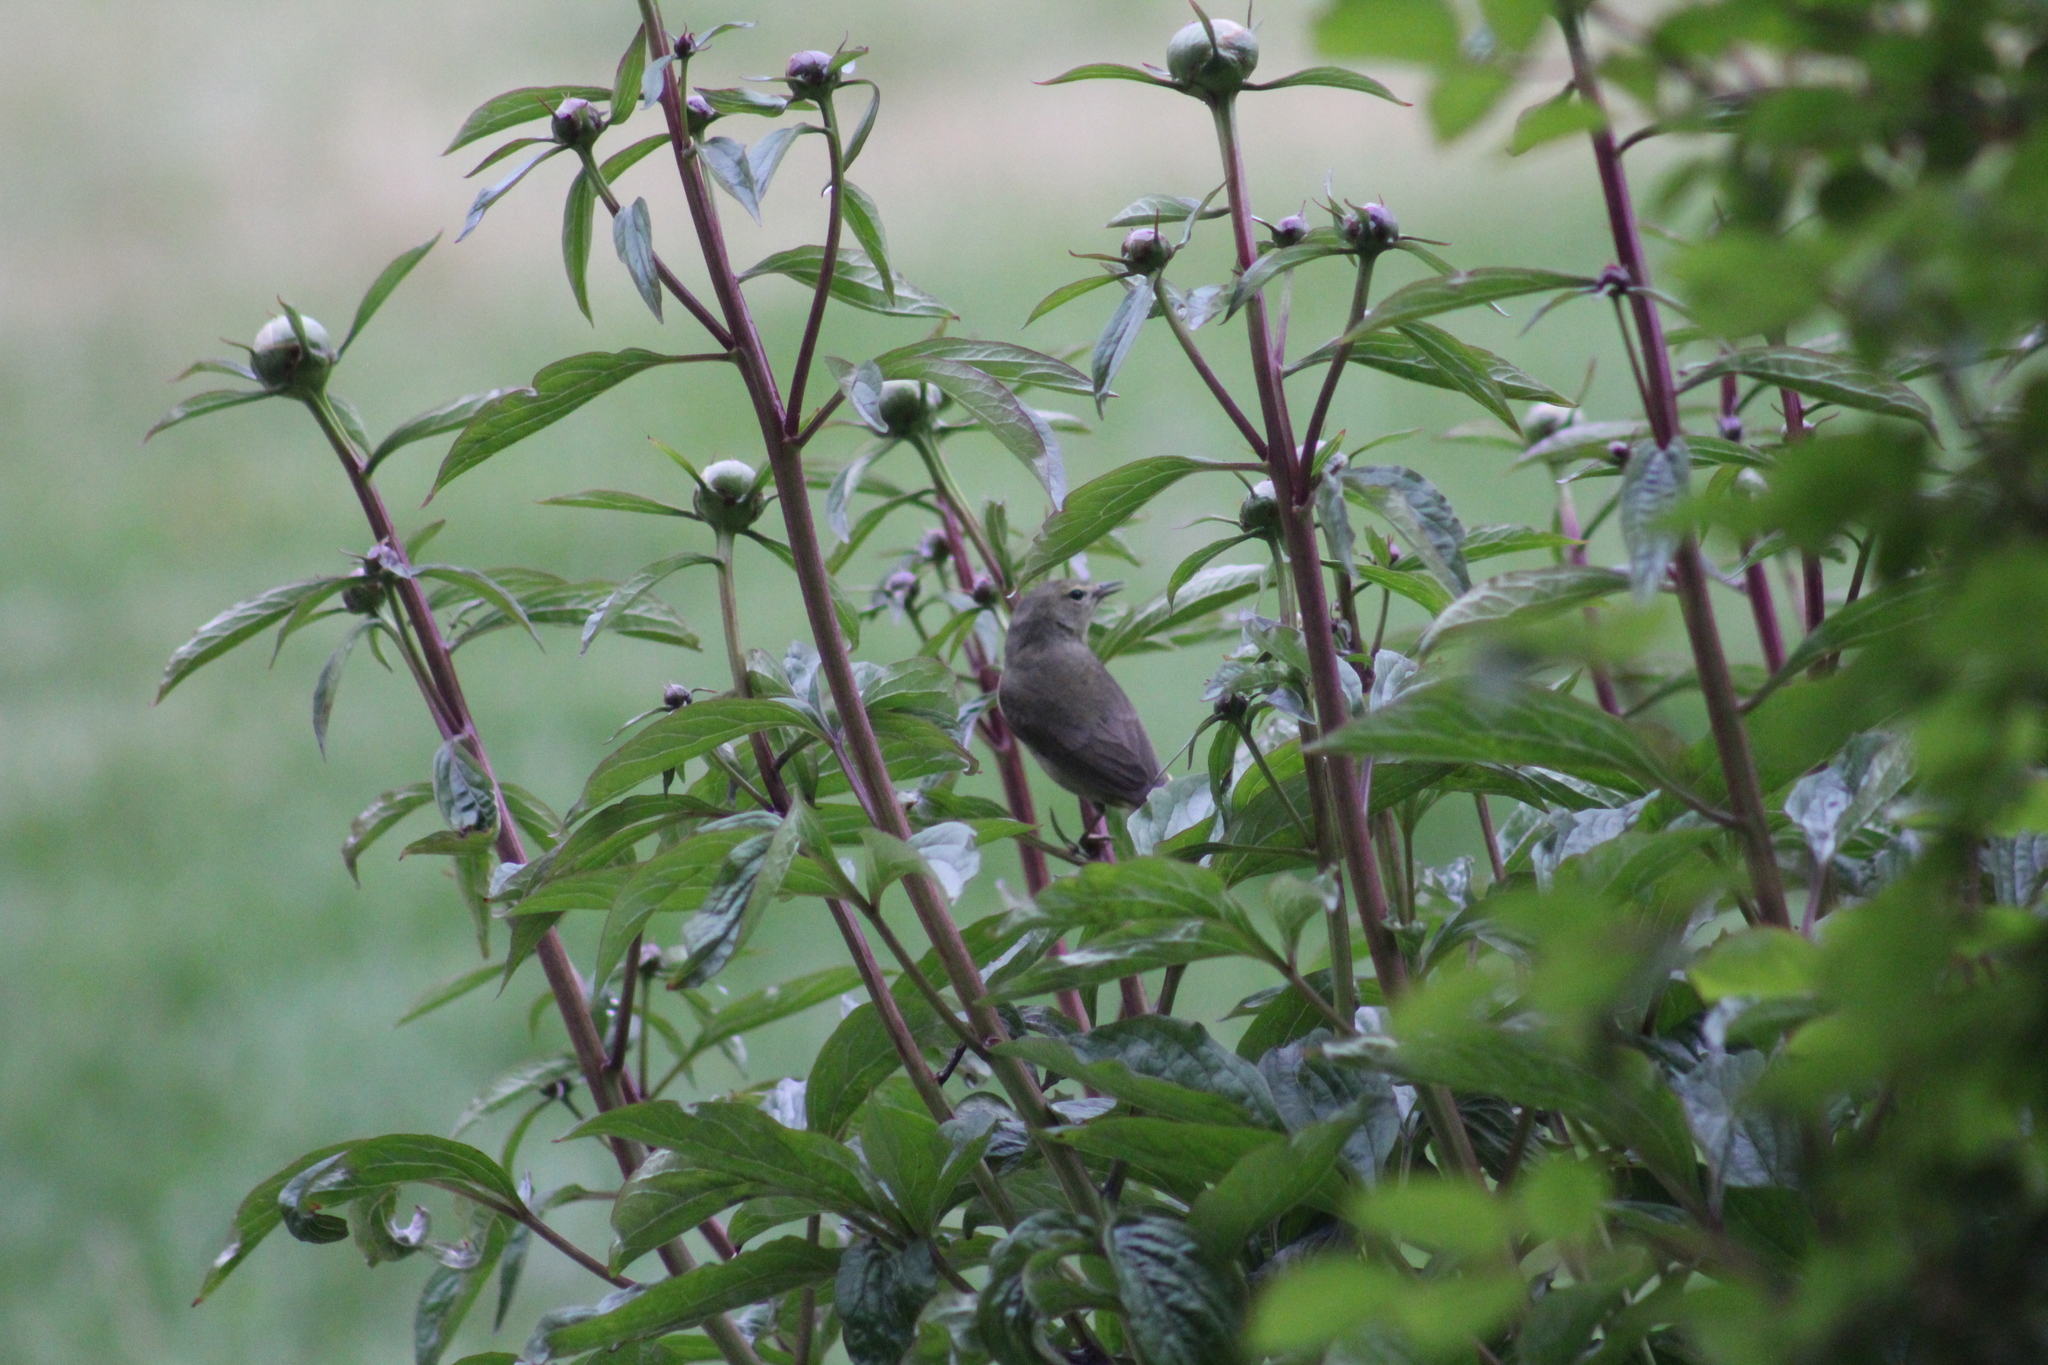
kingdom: Animalia
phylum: Chordata
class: Aves
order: Passeriformes
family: Parulidae
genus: Leiothlypis
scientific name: Leiothlypis celata
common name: Orange-crowned warbler
